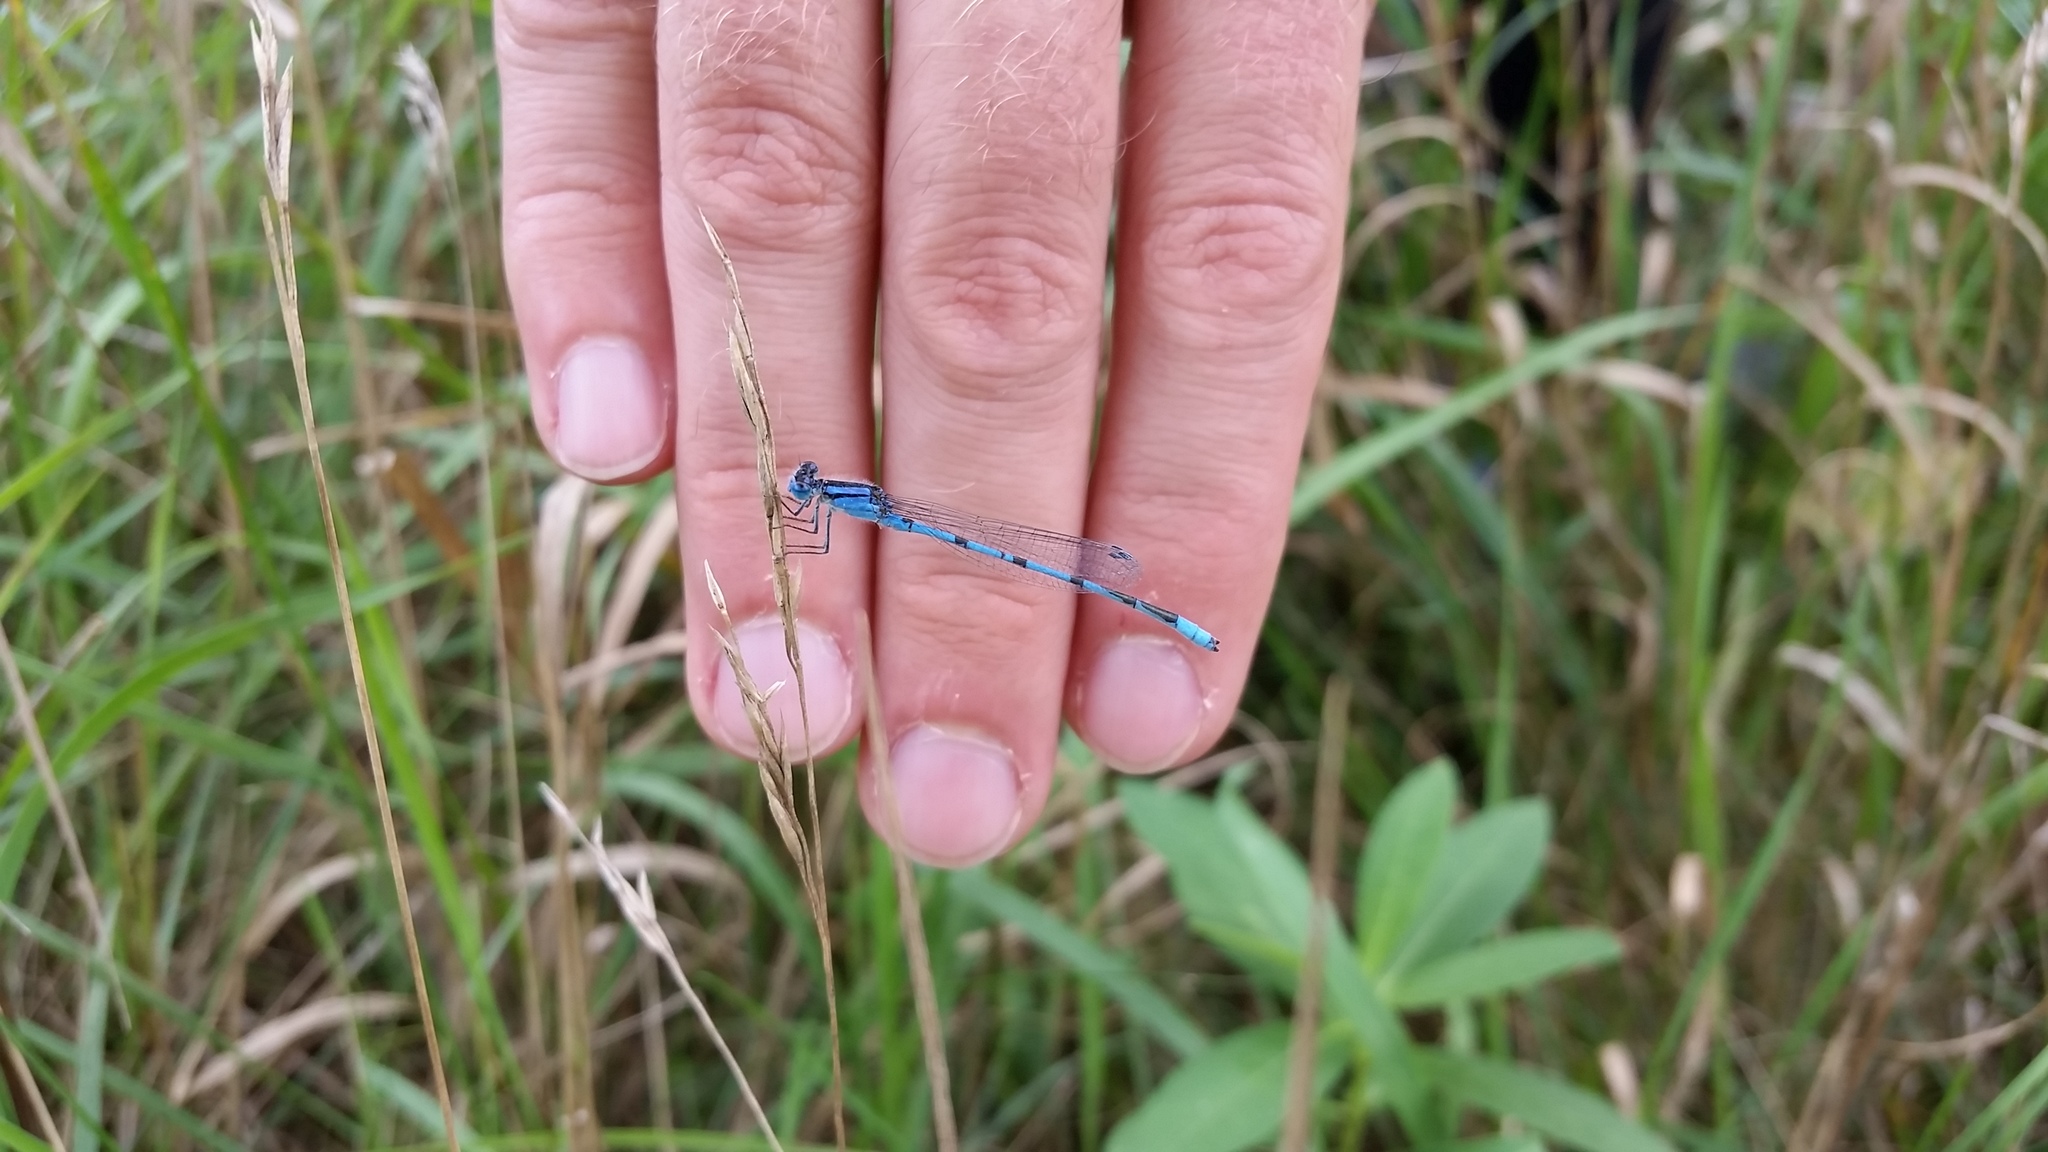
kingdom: Animalia
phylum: Arthropoda
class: Insecta
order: Odonata
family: Coenagrionidae
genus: Enallagma
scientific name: Enallagma civile
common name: Damselfly
